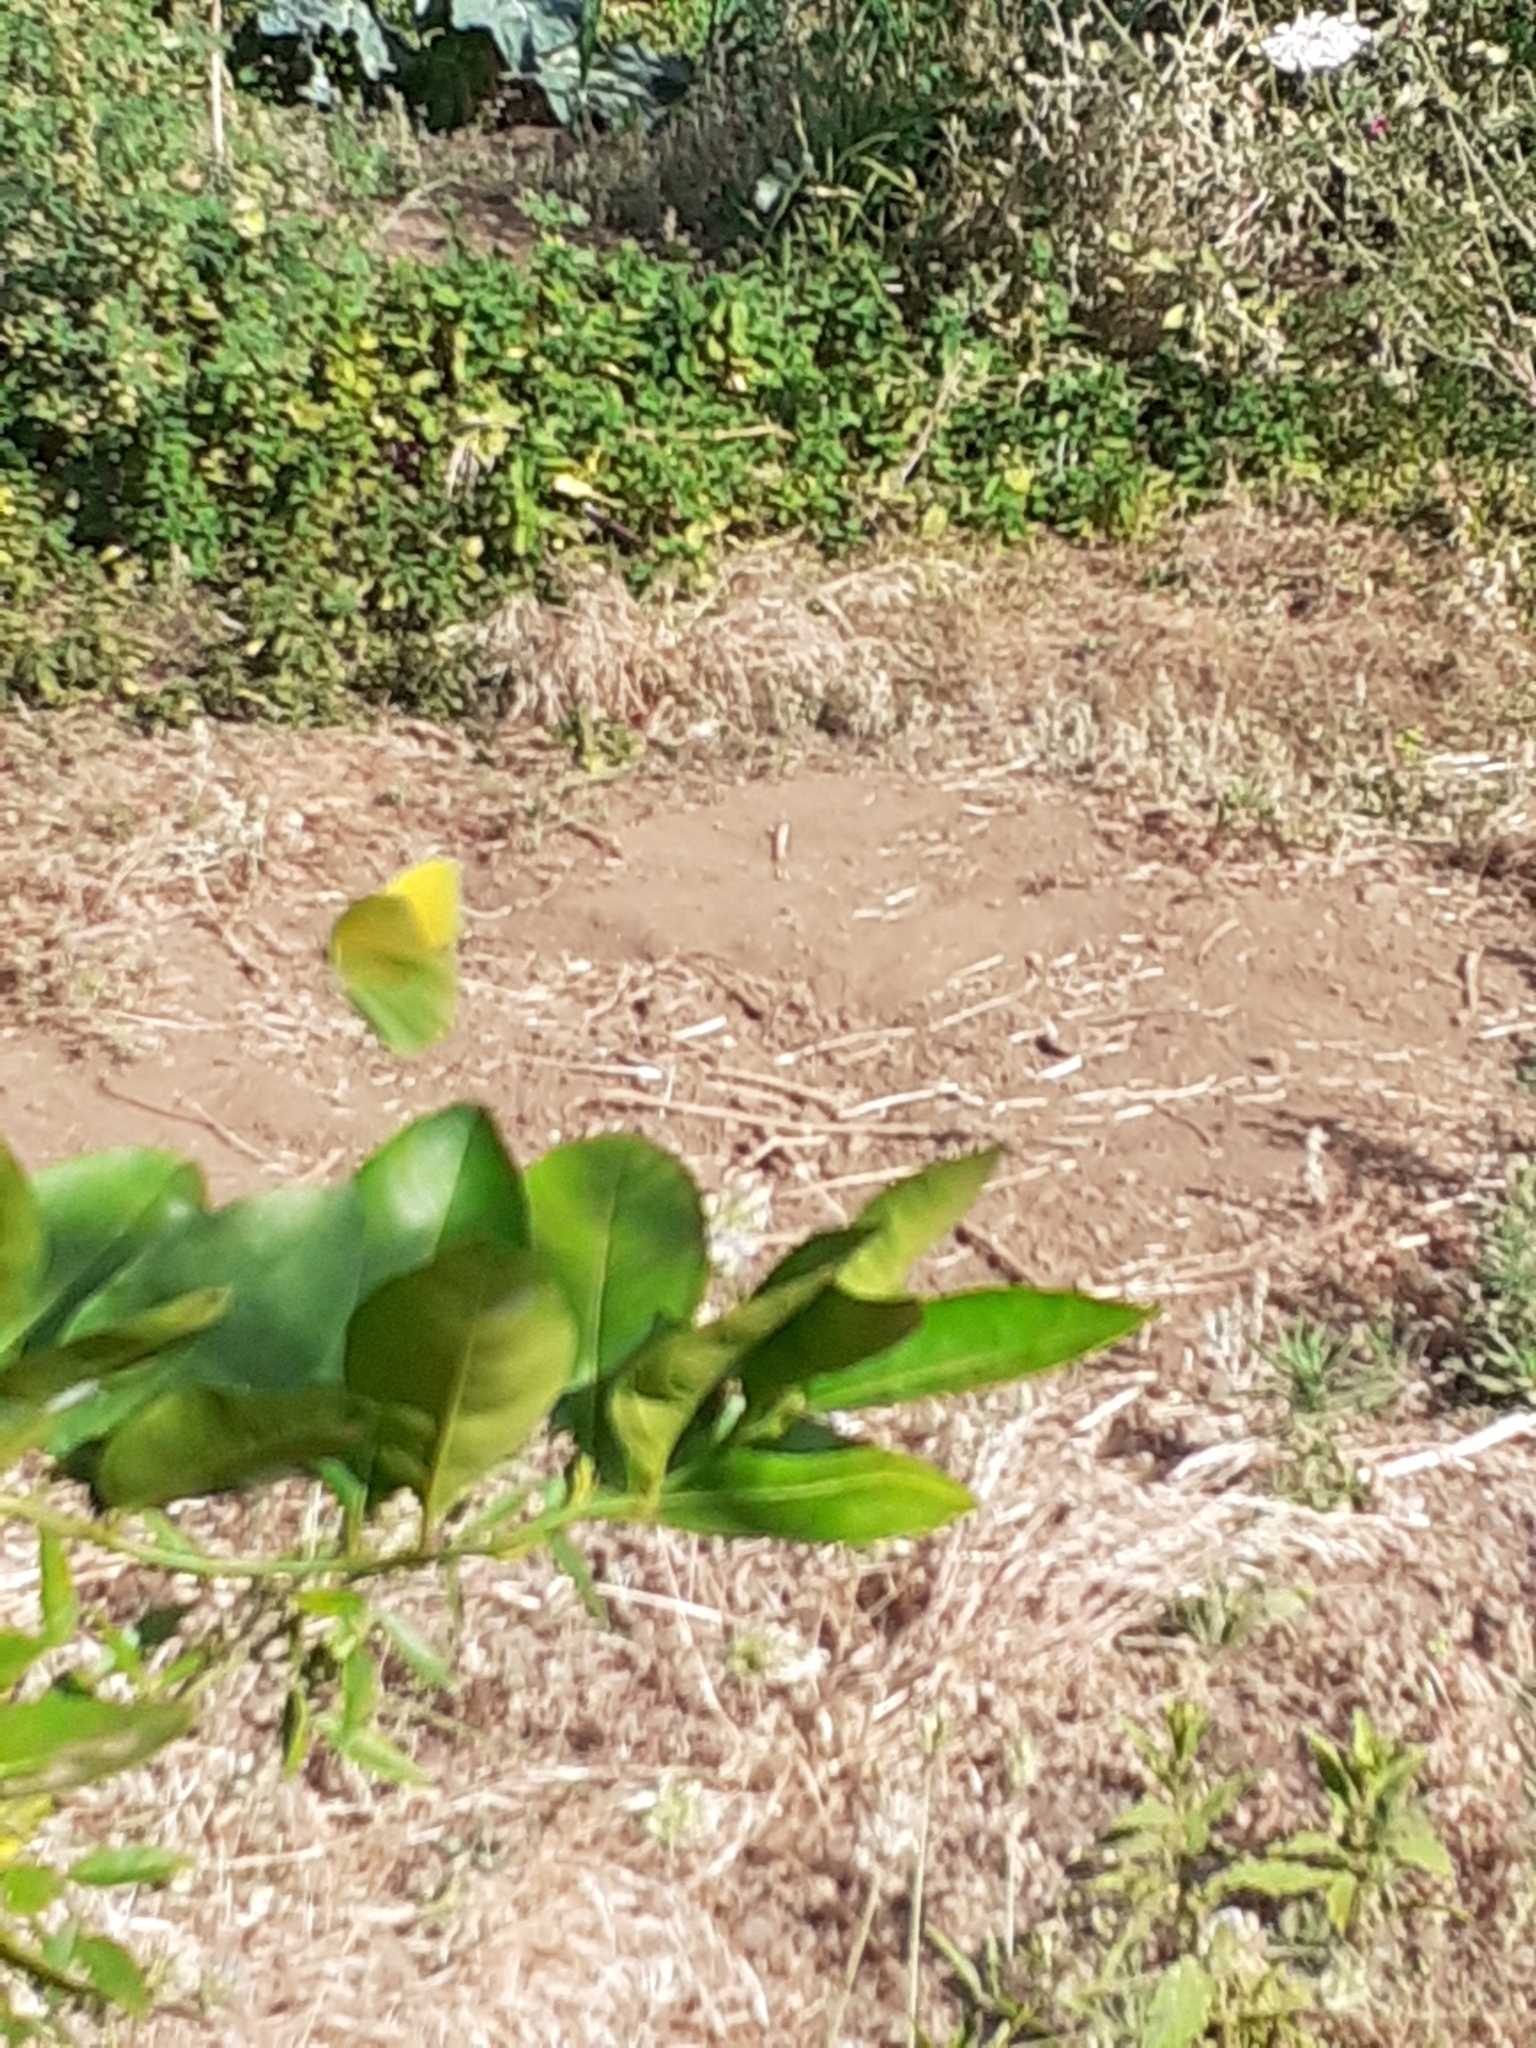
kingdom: Animalia
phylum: Arthropoda
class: Insecta
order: Lepidoptera
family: Pieridae
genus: Gonepteryx
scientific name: Gonepteryx cleobule
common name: Canary brimstone
